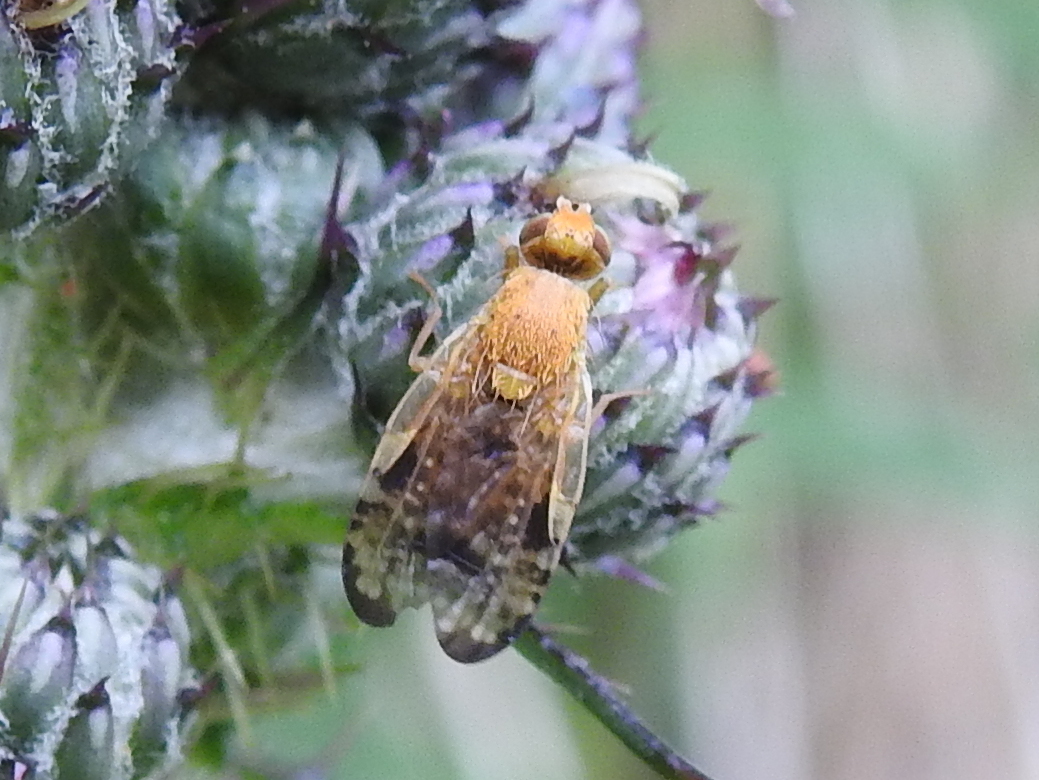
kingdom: Animalia
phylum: Arthropoda
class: Insecta
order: Diptera
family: Tephritidae
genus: Xyphosia
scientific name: Xyphosia miliaria
